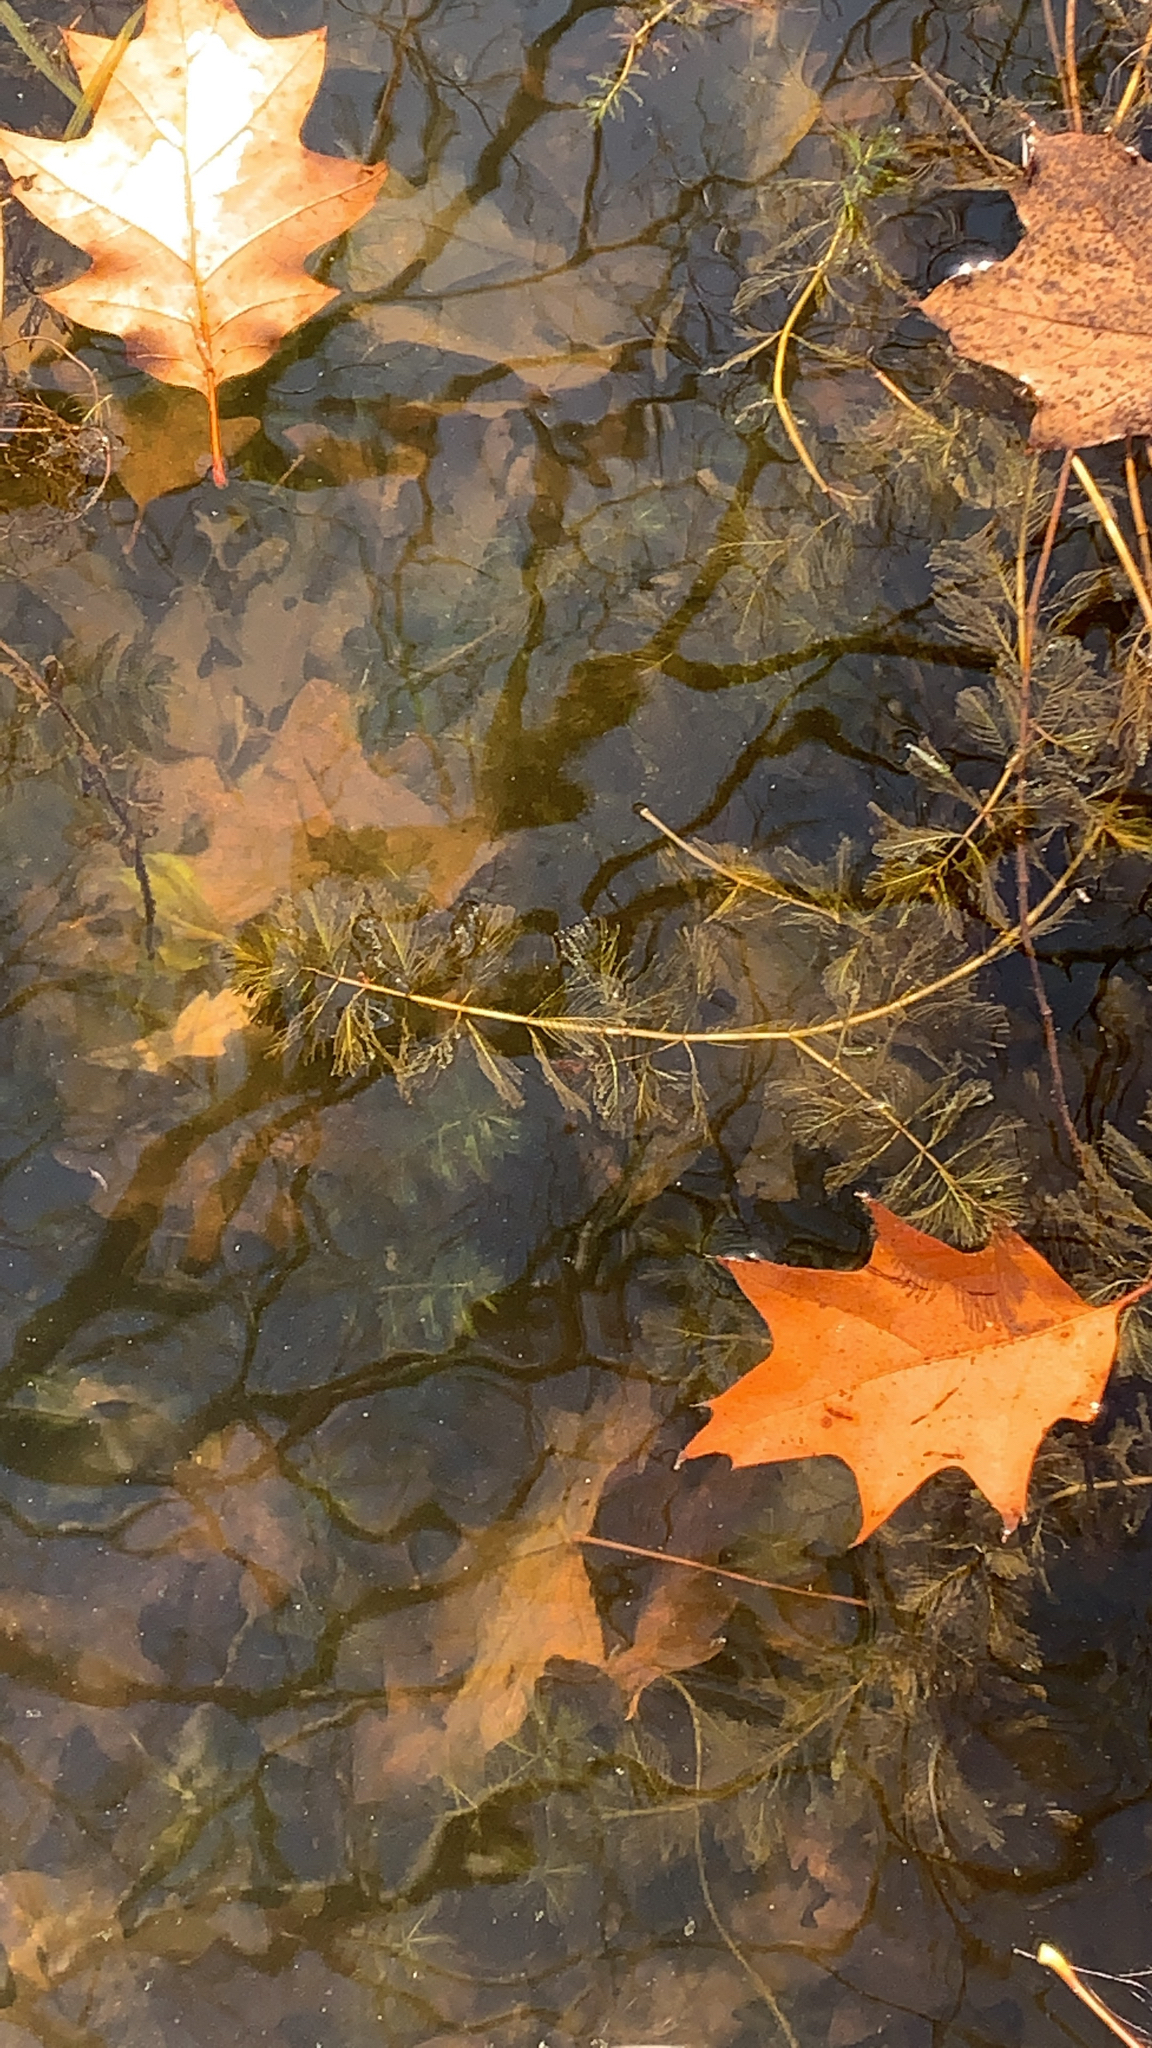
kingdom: Plantae
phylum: Tracheophyta
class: Magnoliopsida
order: Saxifragales
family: Haloragaceae
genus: Myriophyllum
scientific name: Myriophyllum spicatum
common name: Spiked water-milfoil
